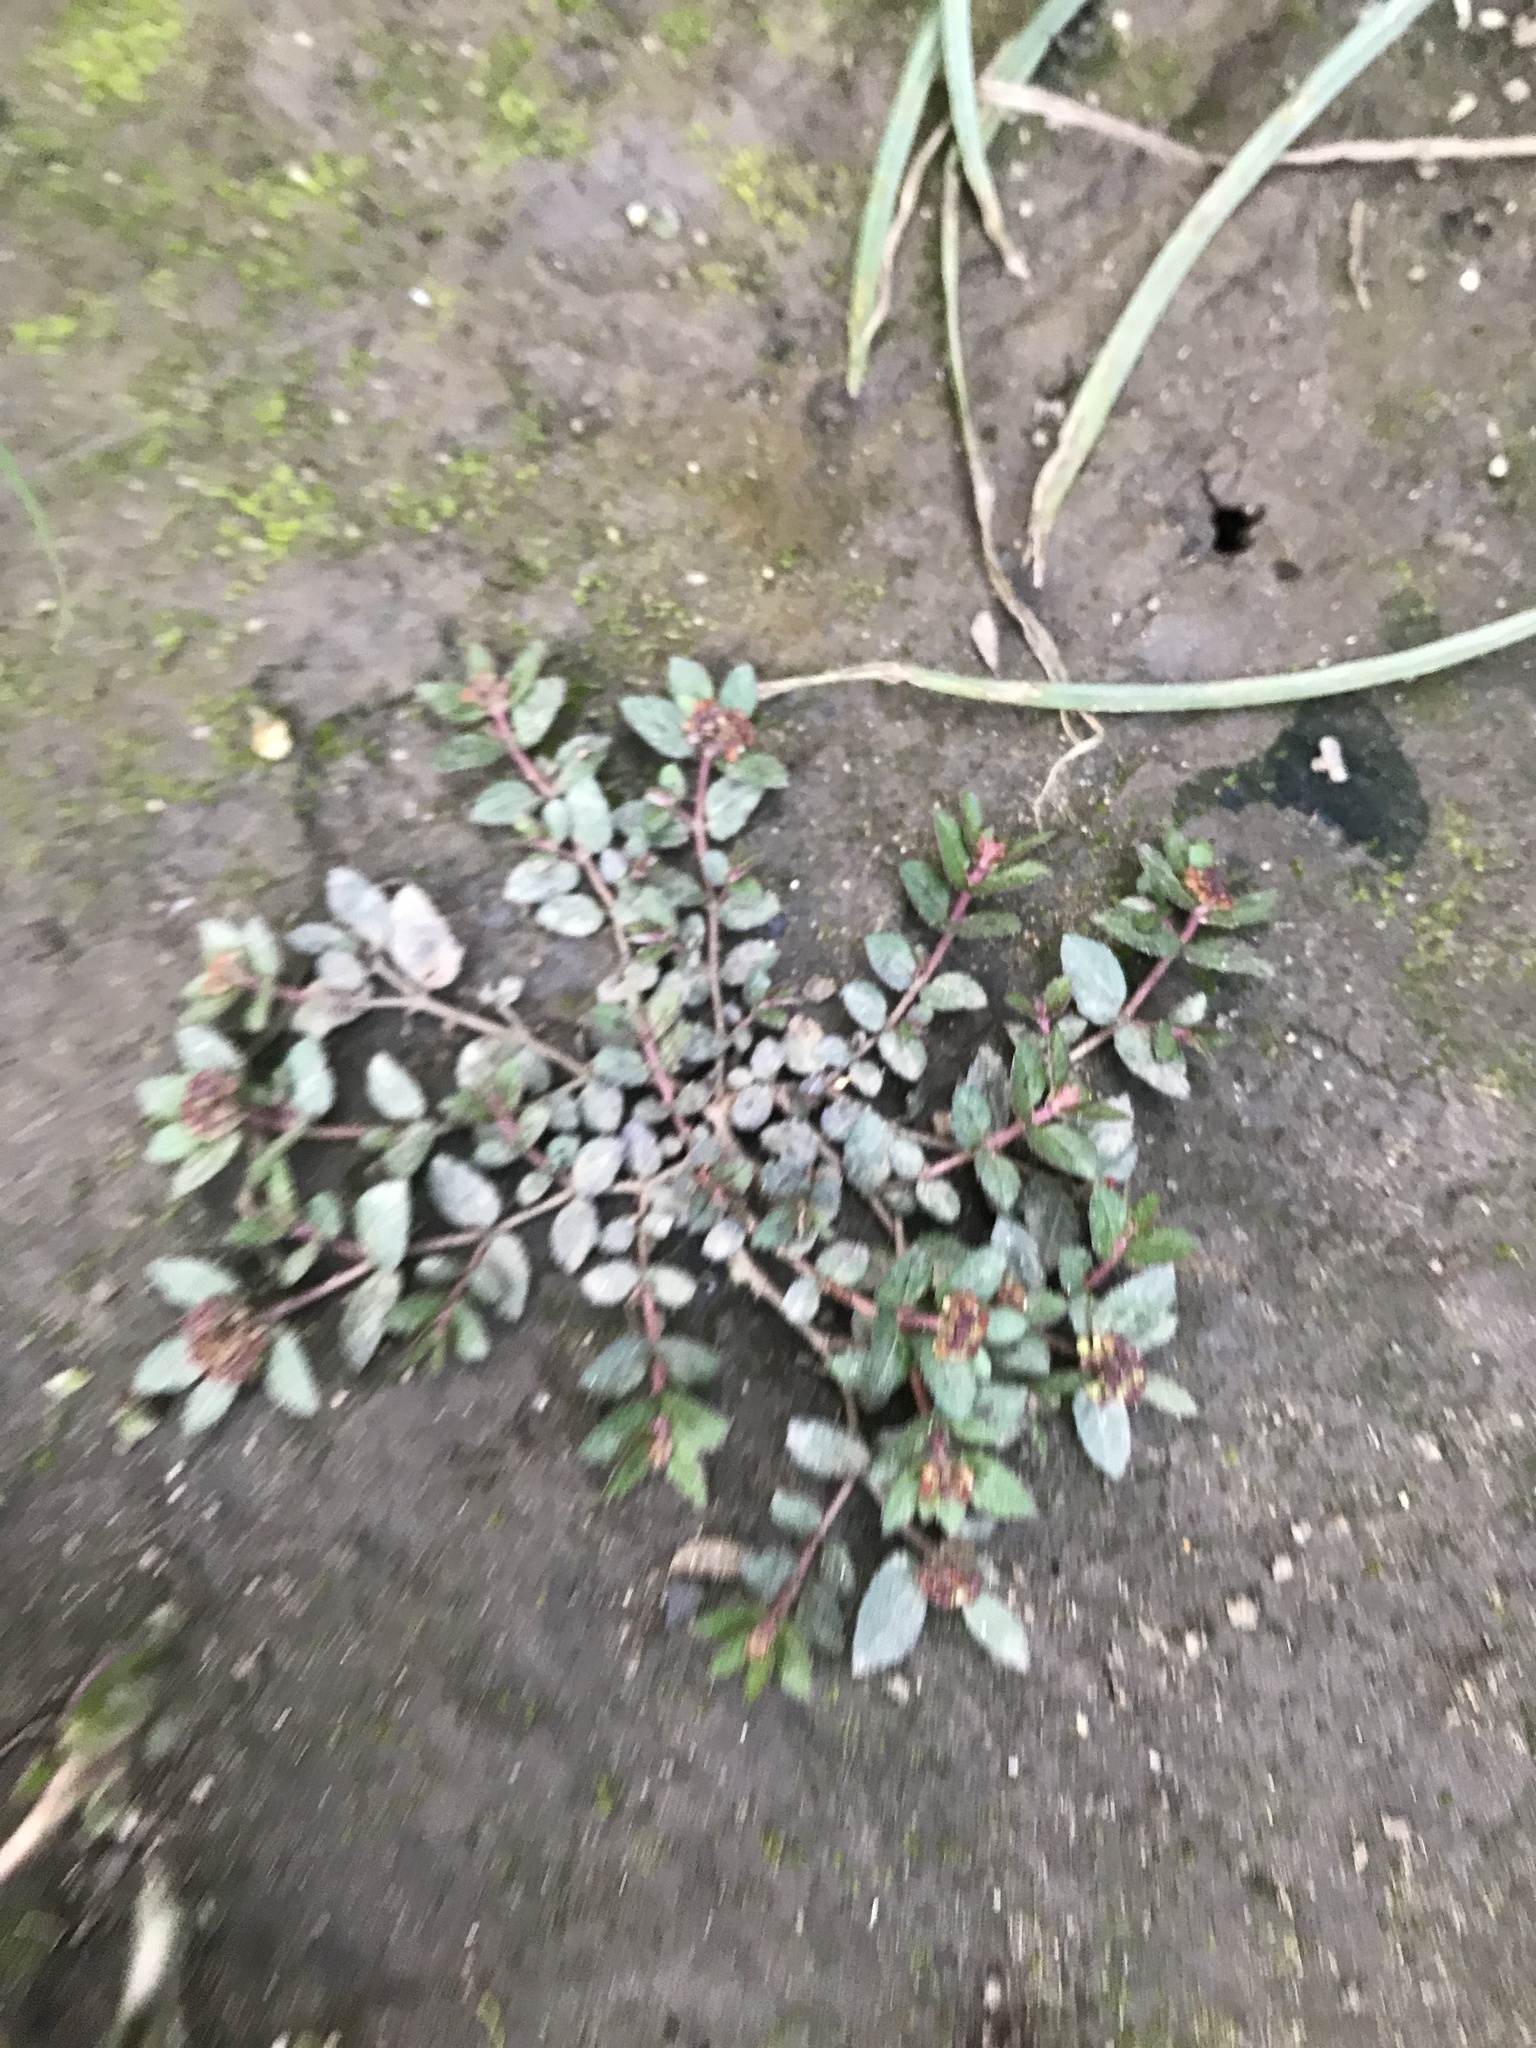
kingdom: Plantae
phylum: Tracheophyta
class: Magnoliopsida
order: Malpighiales
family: Euphorbiaceae
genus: Euphorbia
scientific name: Euphorbia ophthalmica
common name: Florida hammock sandmat
